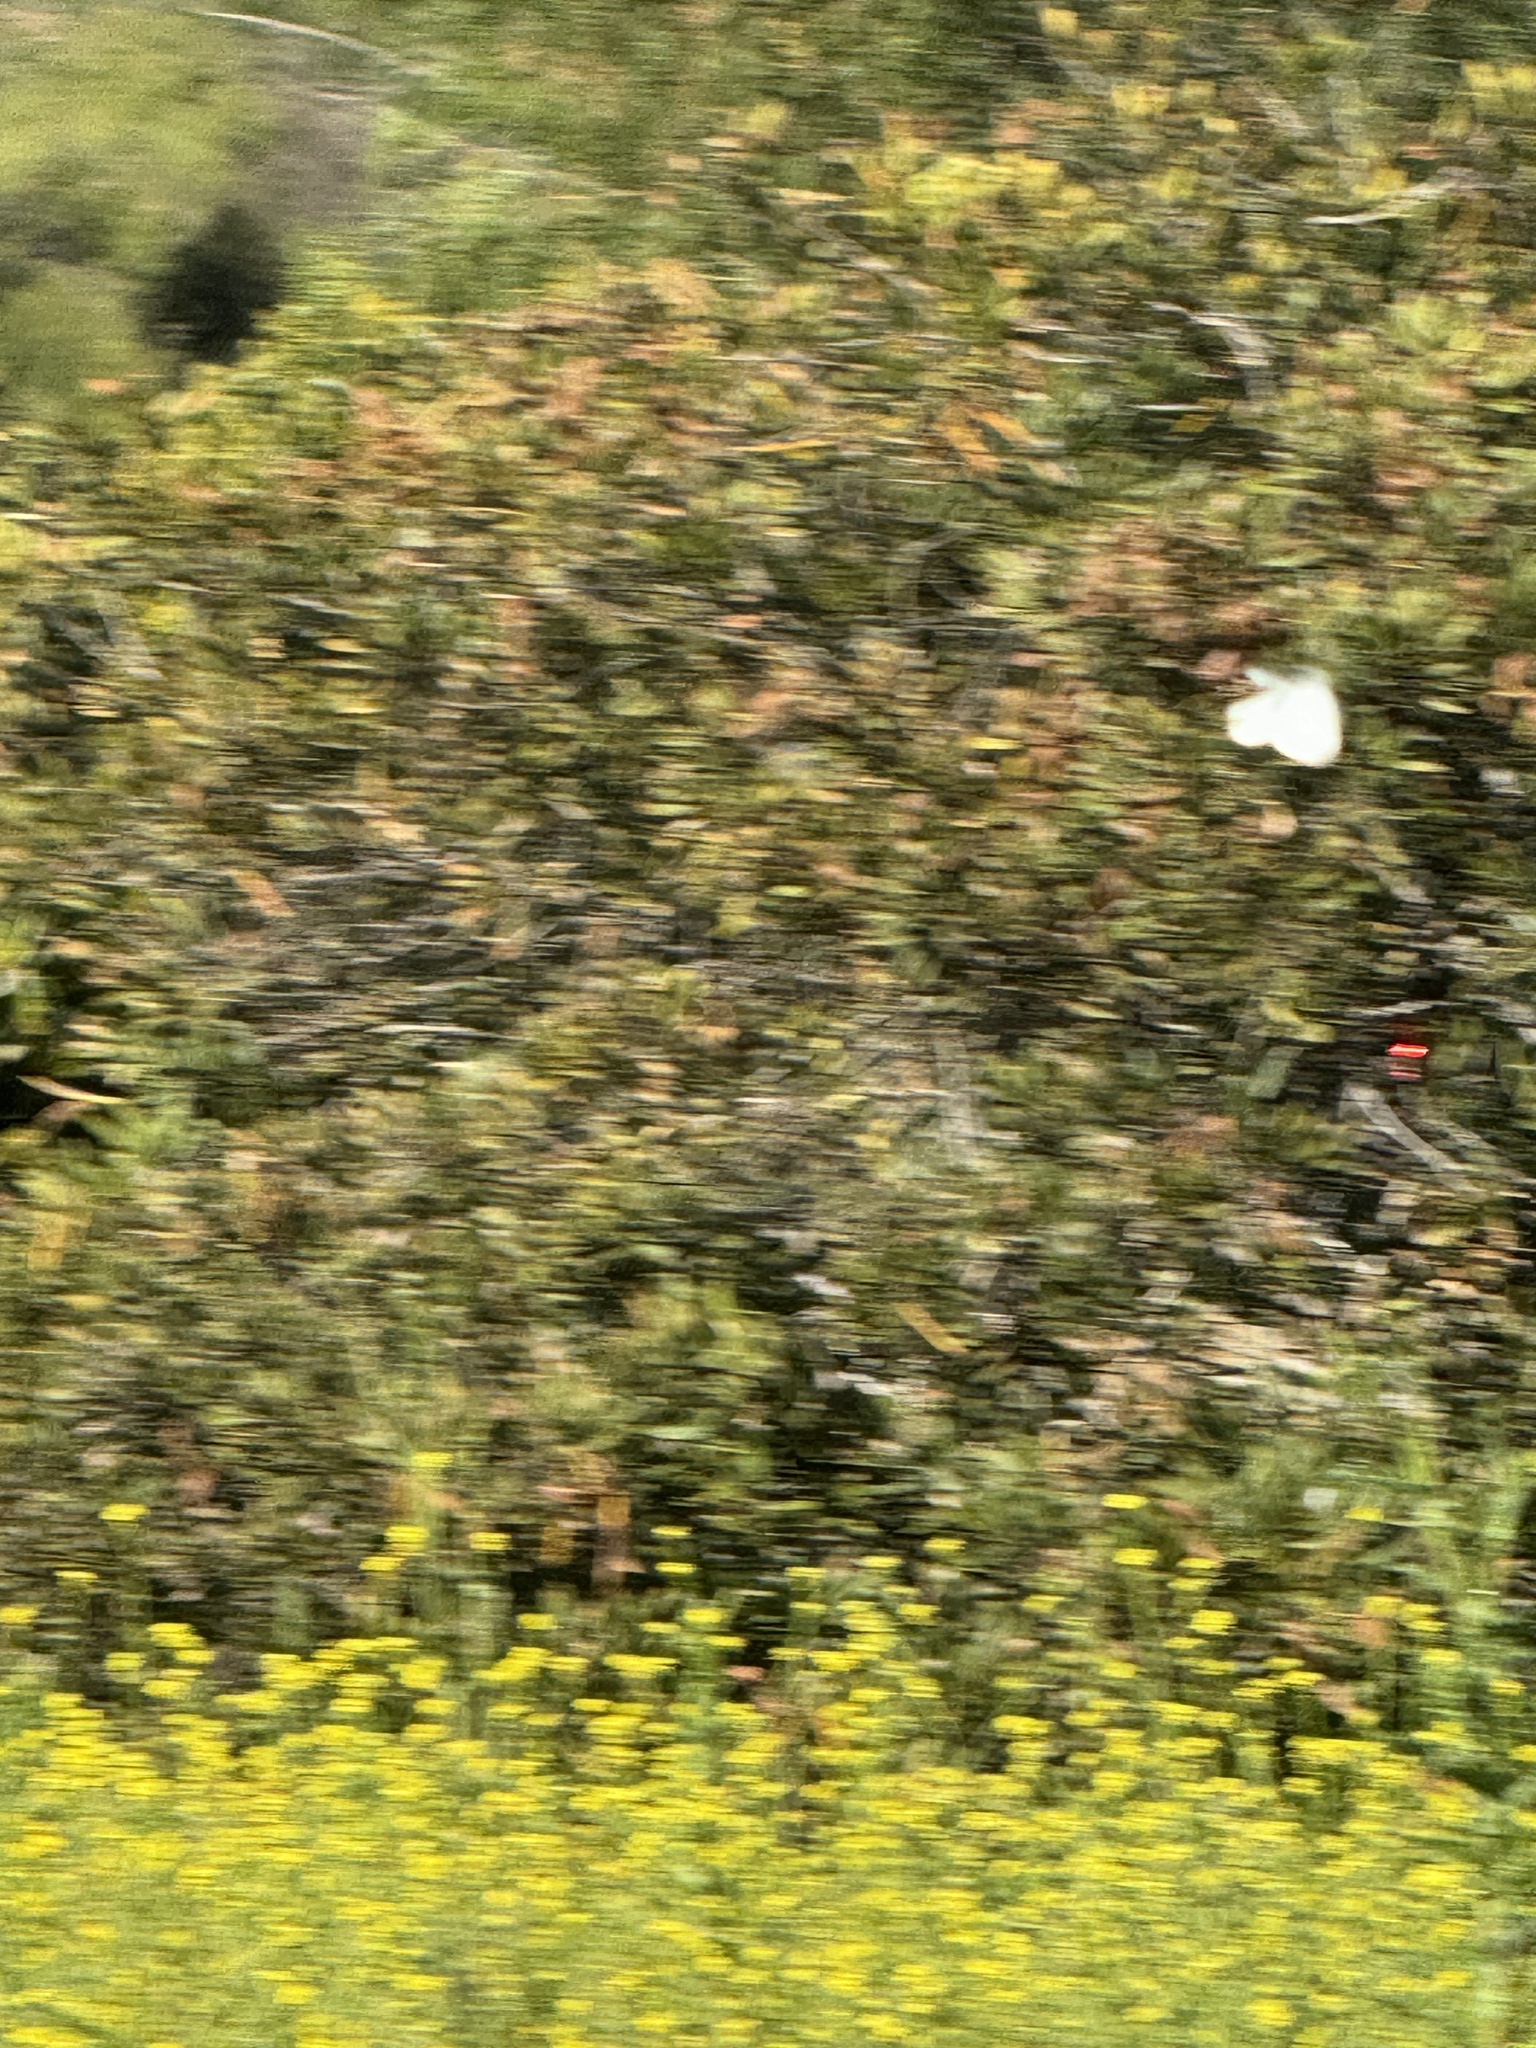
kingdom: Animalia
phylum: Arthropoda
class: Insecta
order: Lepidoptera
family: Pieridae
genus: Pieris
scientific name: Pieris rapae
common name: Small white
